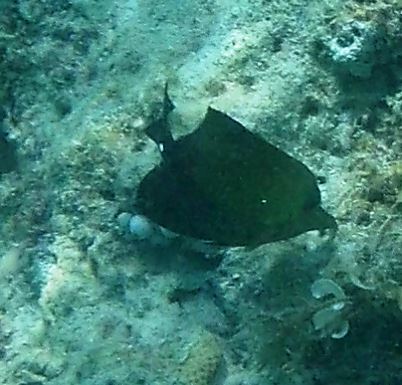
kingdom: Animalia
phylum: Chordata
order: Perciformes
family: Acanthuridae
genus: Zebrasoma
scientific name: Zebrasoma scopas
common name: Twotone tang
